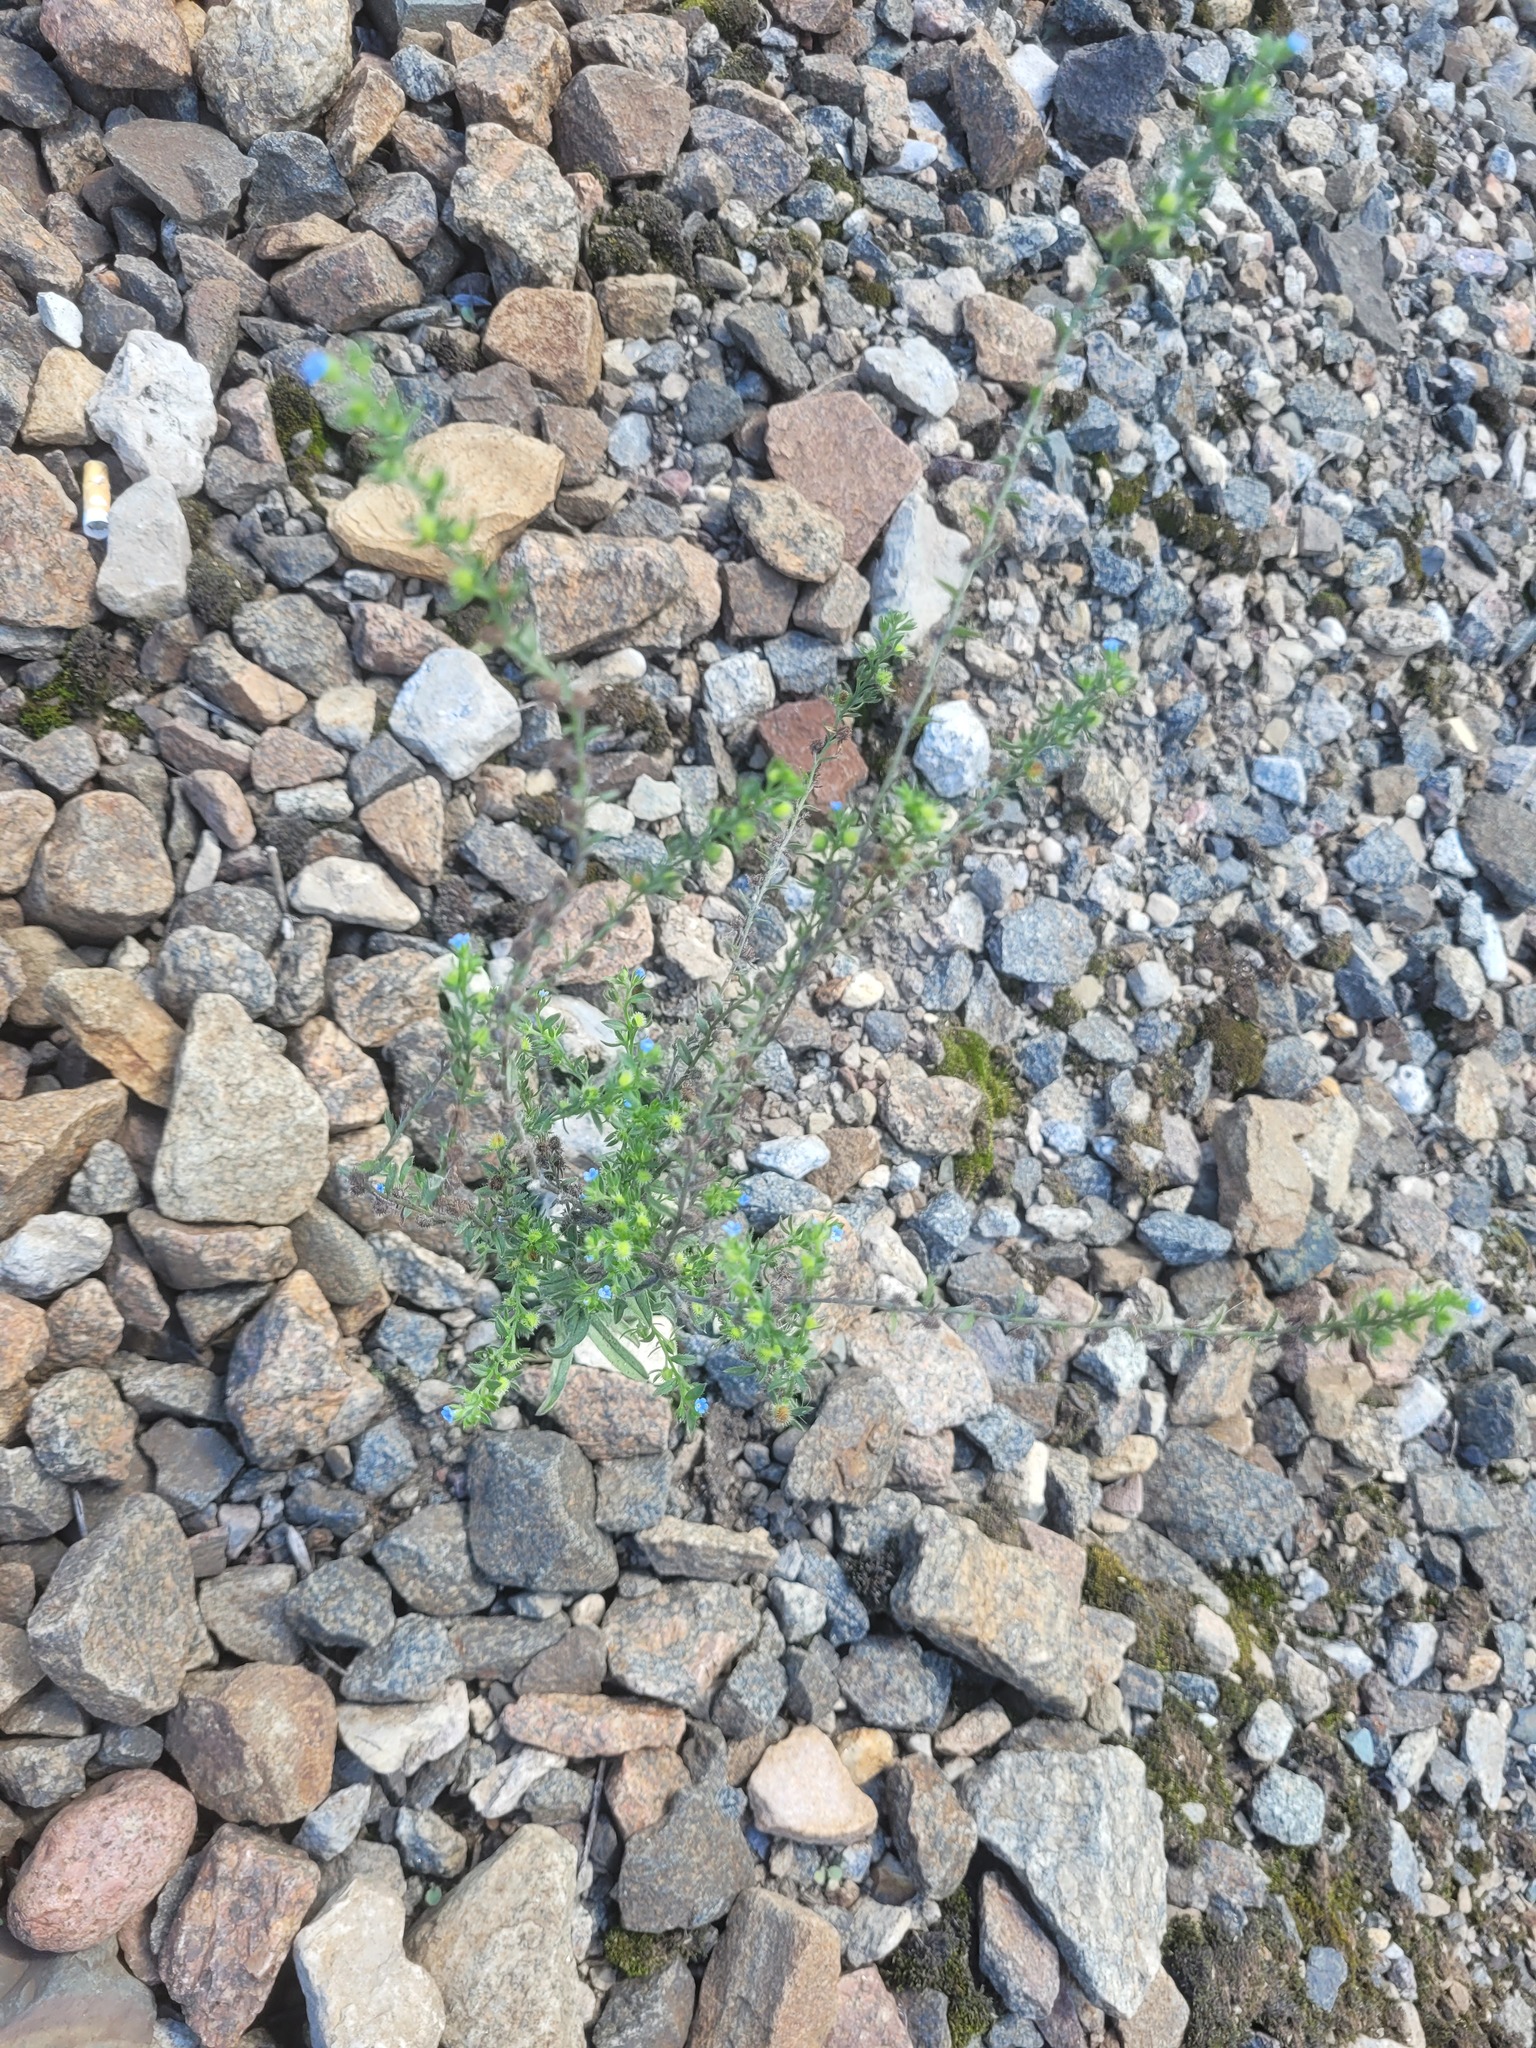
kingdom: Plantae
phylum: Tracheophyta
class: Magnoliopsida
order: Boraginales
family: Boraginaceae
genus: Lappula
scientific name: Lappula squarrosa
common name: European stickseed
